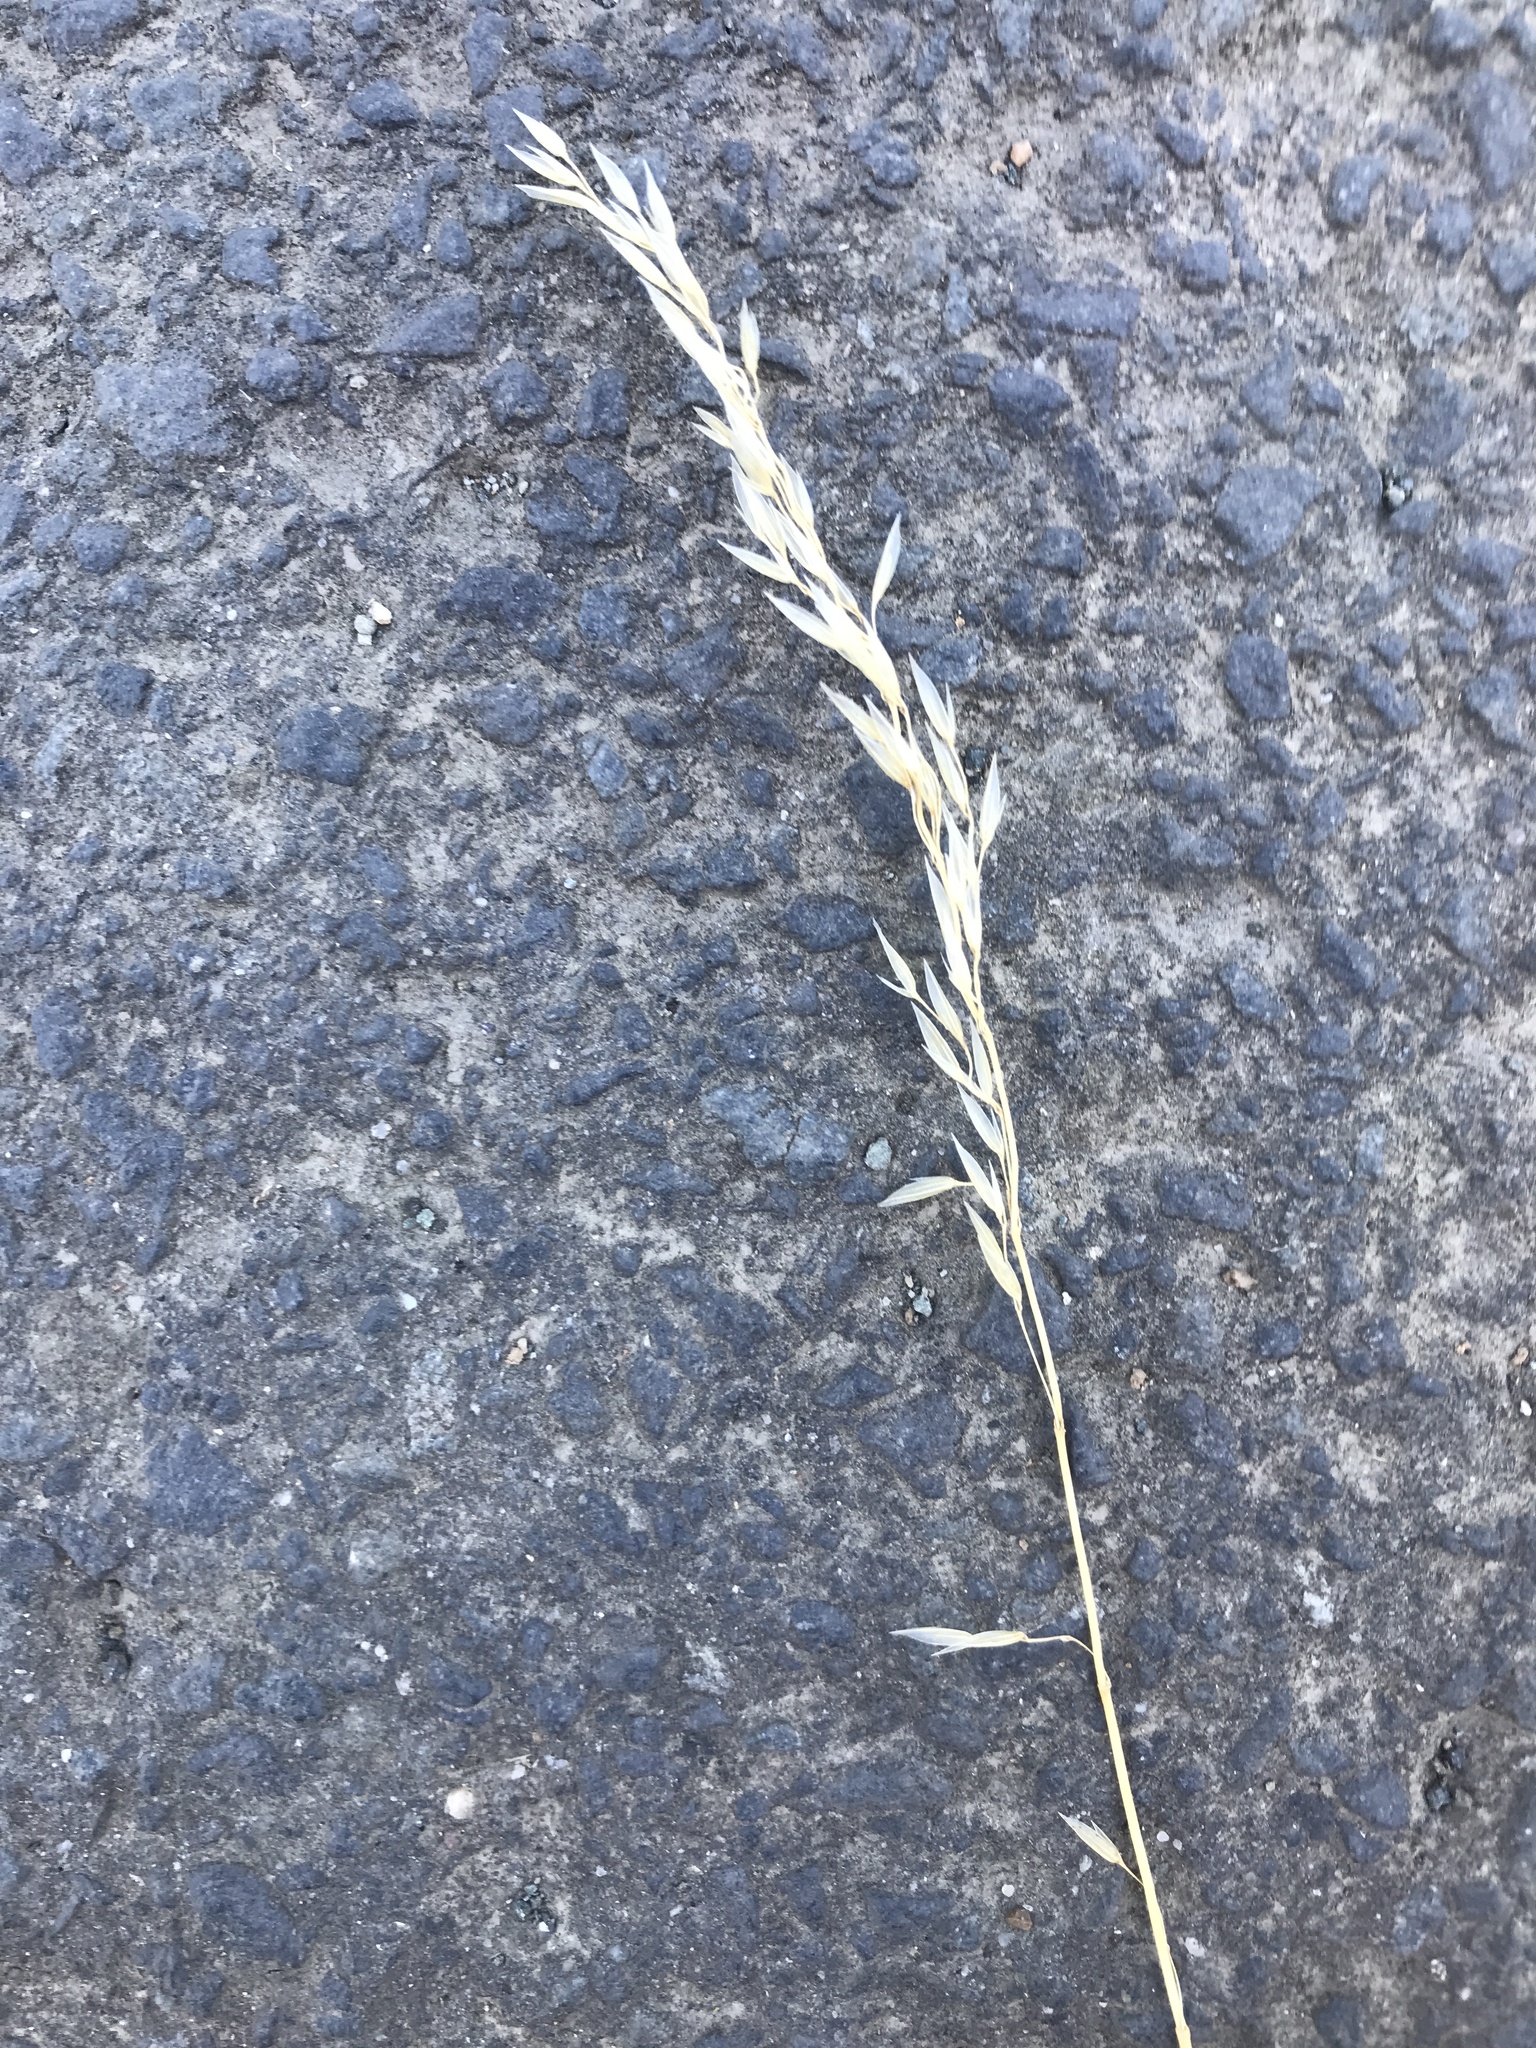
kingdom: Plantae
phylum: Tracheophyta
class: Liliopsida
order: Poales
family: Poaceae
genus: Arrhenatherum
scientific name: Arrhenatherum elatius
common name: Tall oatgrass
